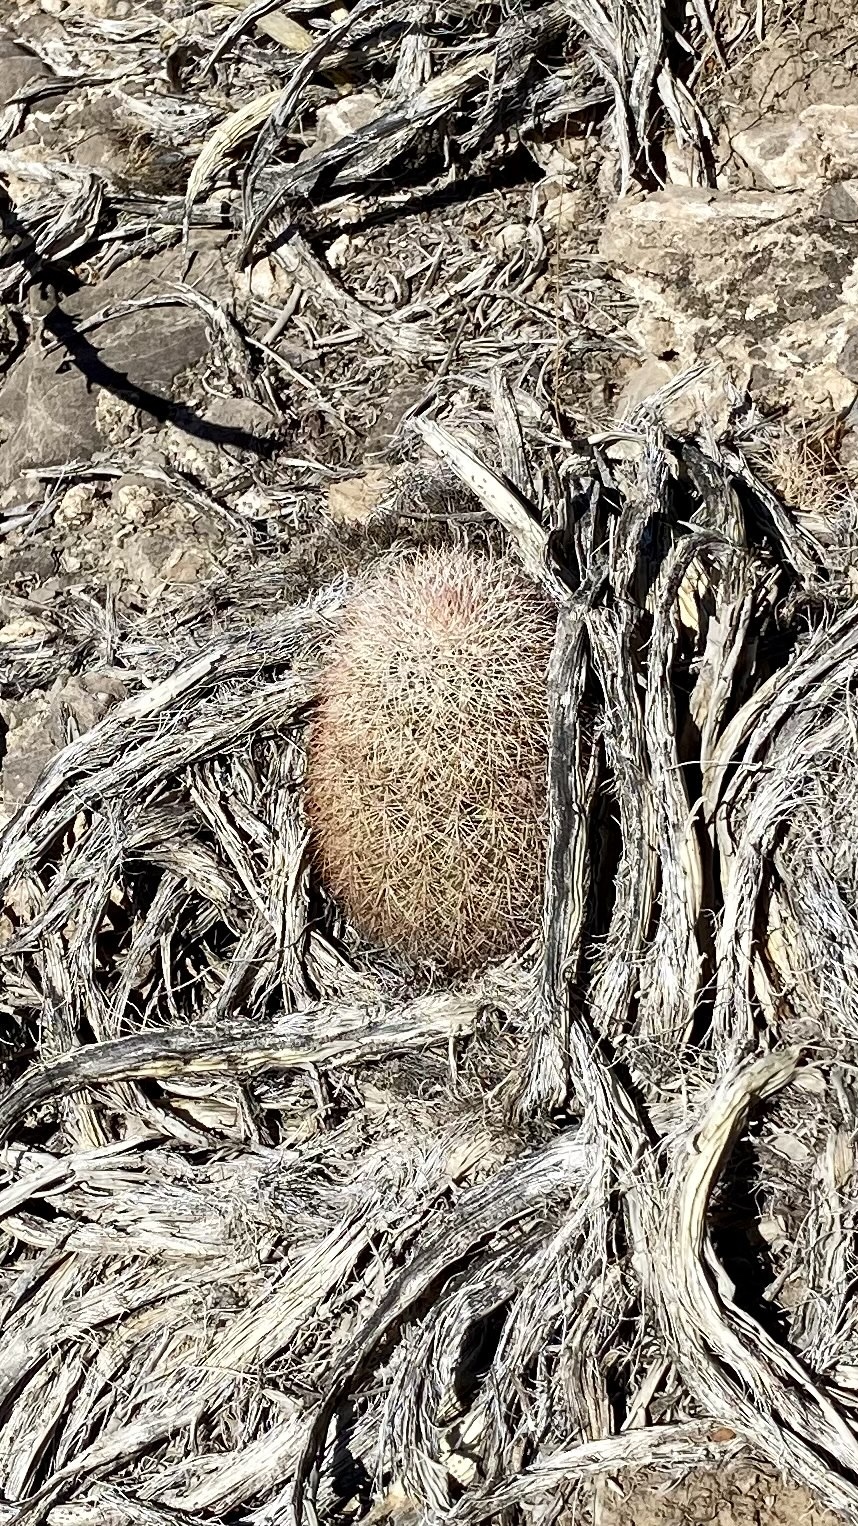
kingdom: Plantae
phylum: Tracheophyta
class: Magnoliopsida
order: Caryophyllales
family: Cactaceae
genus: Echinocereus
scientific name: Echinocereus dasyacanthus
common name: Spiny hedgehog cactus
